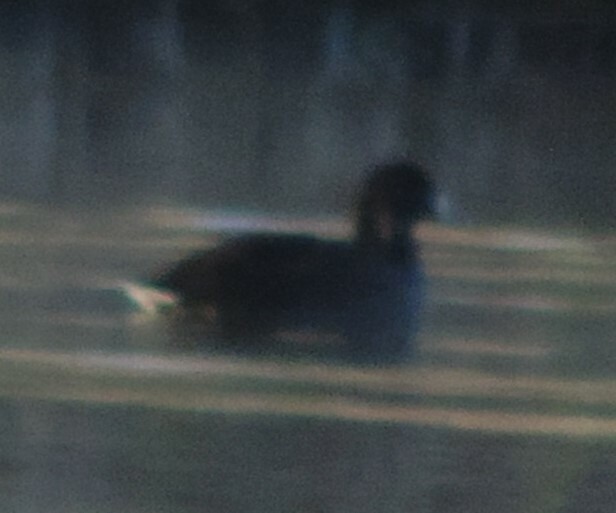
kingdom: Animalia
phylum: Chordata
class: Aves
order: Gruiformes
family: Rallidae
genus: Fulica
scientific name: Fulica americana
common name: American coot
